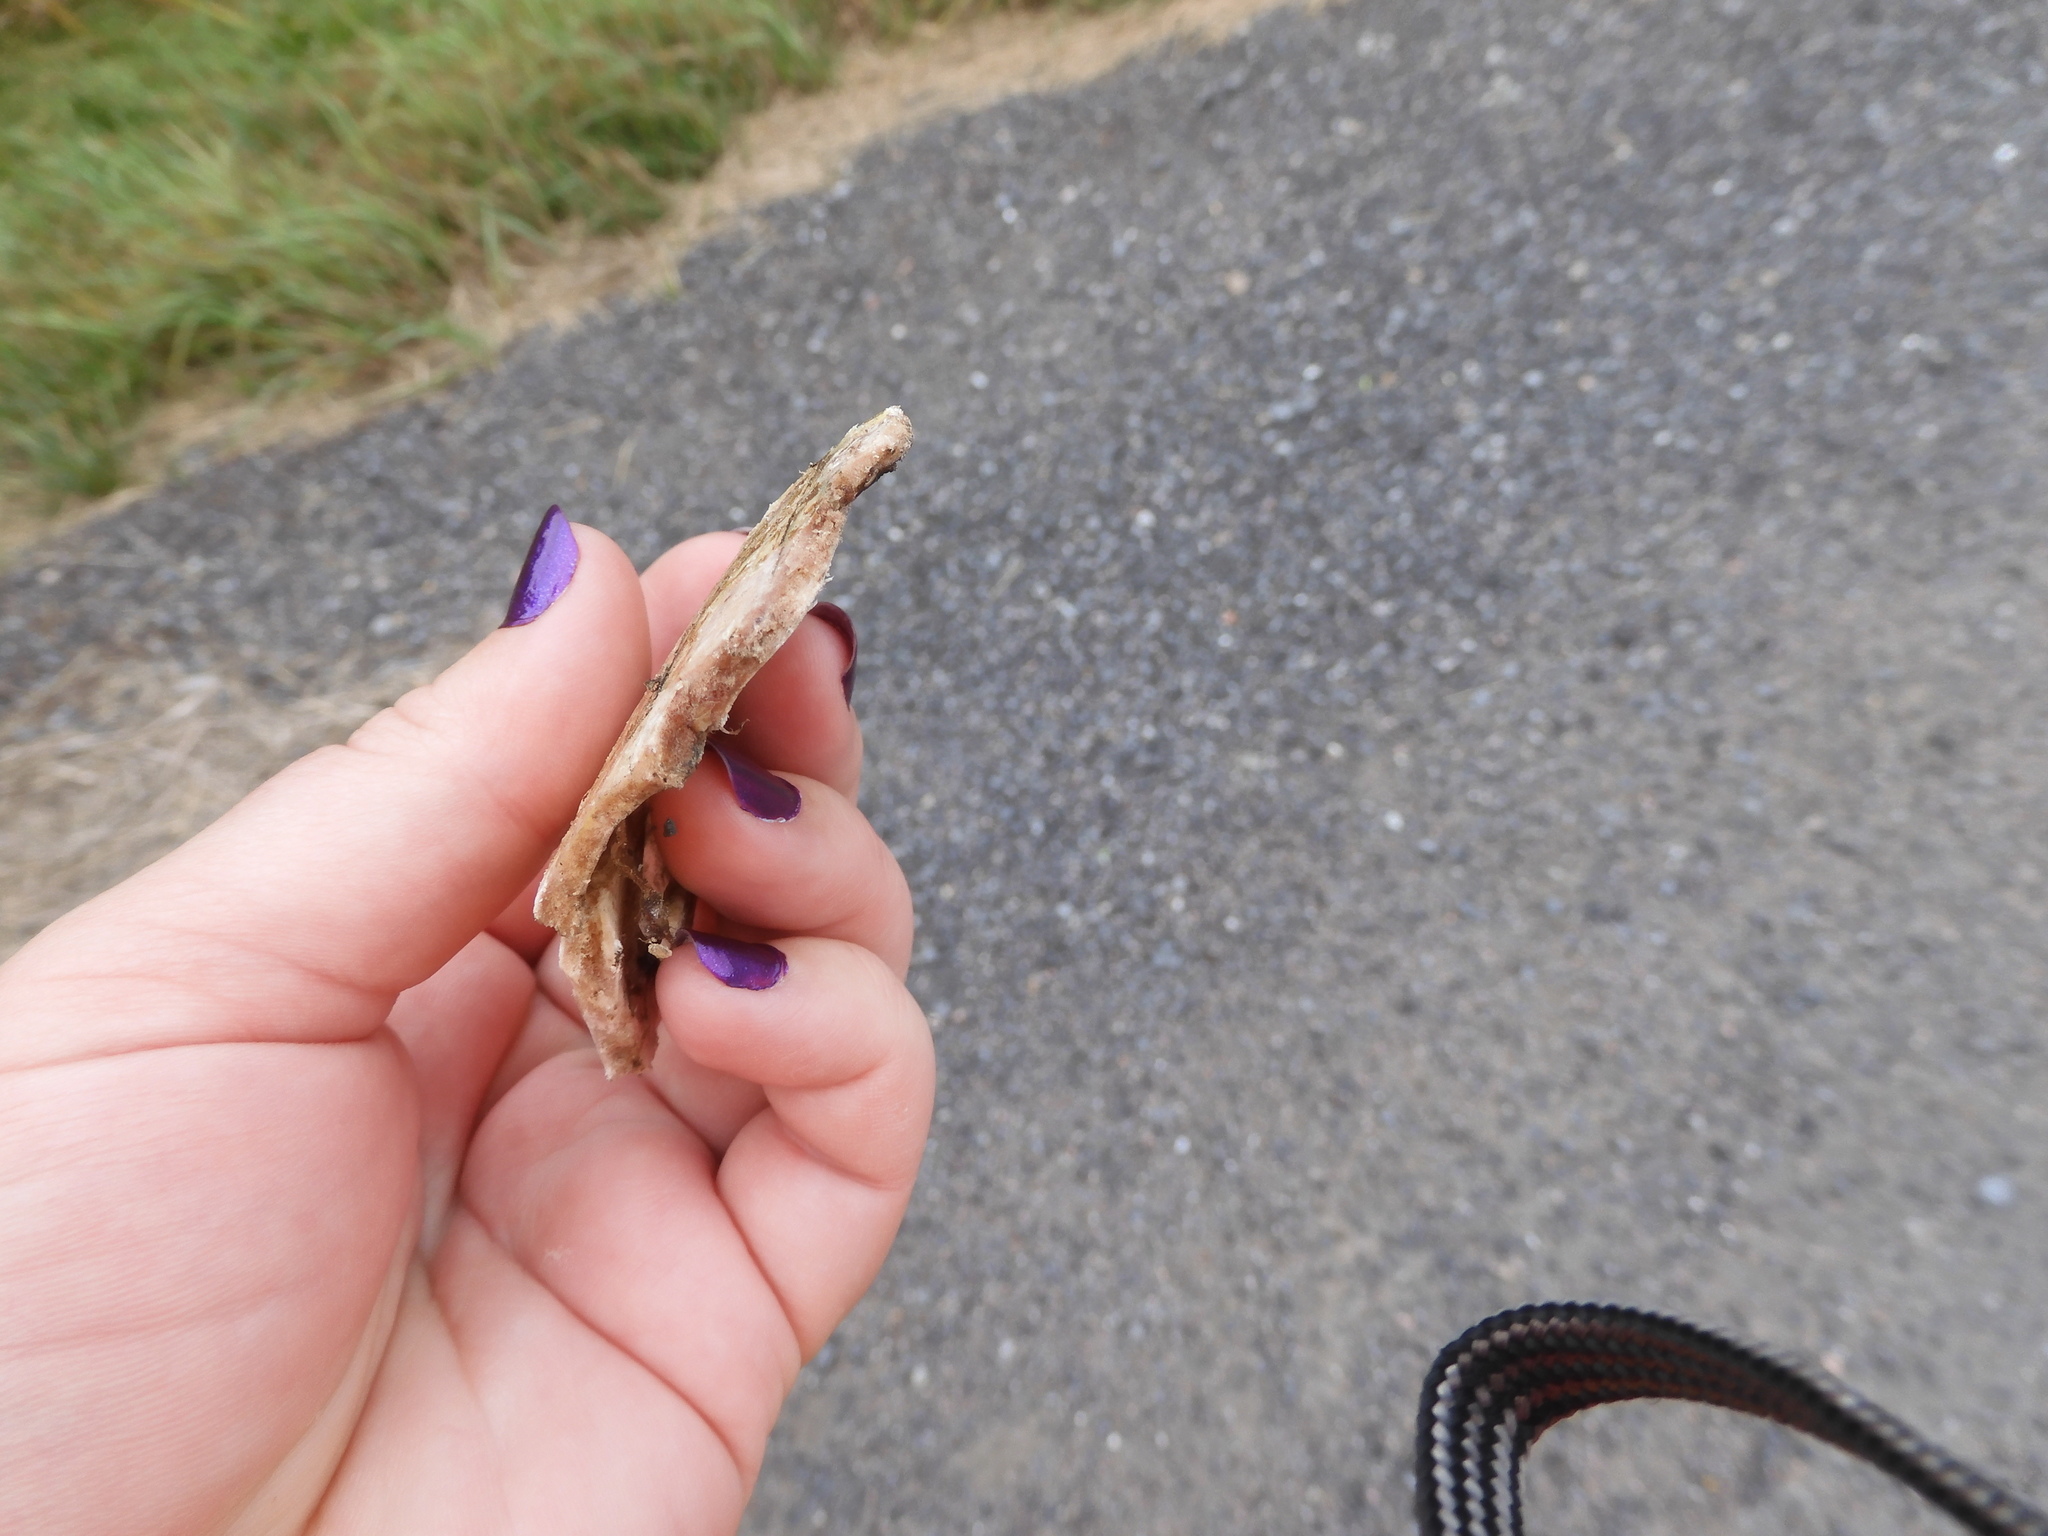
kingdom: Animalia
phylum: Chordata
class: Testudines
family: Emydidae
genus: Chrysemys
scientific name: Chrysemys picta
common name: Painted turtle
